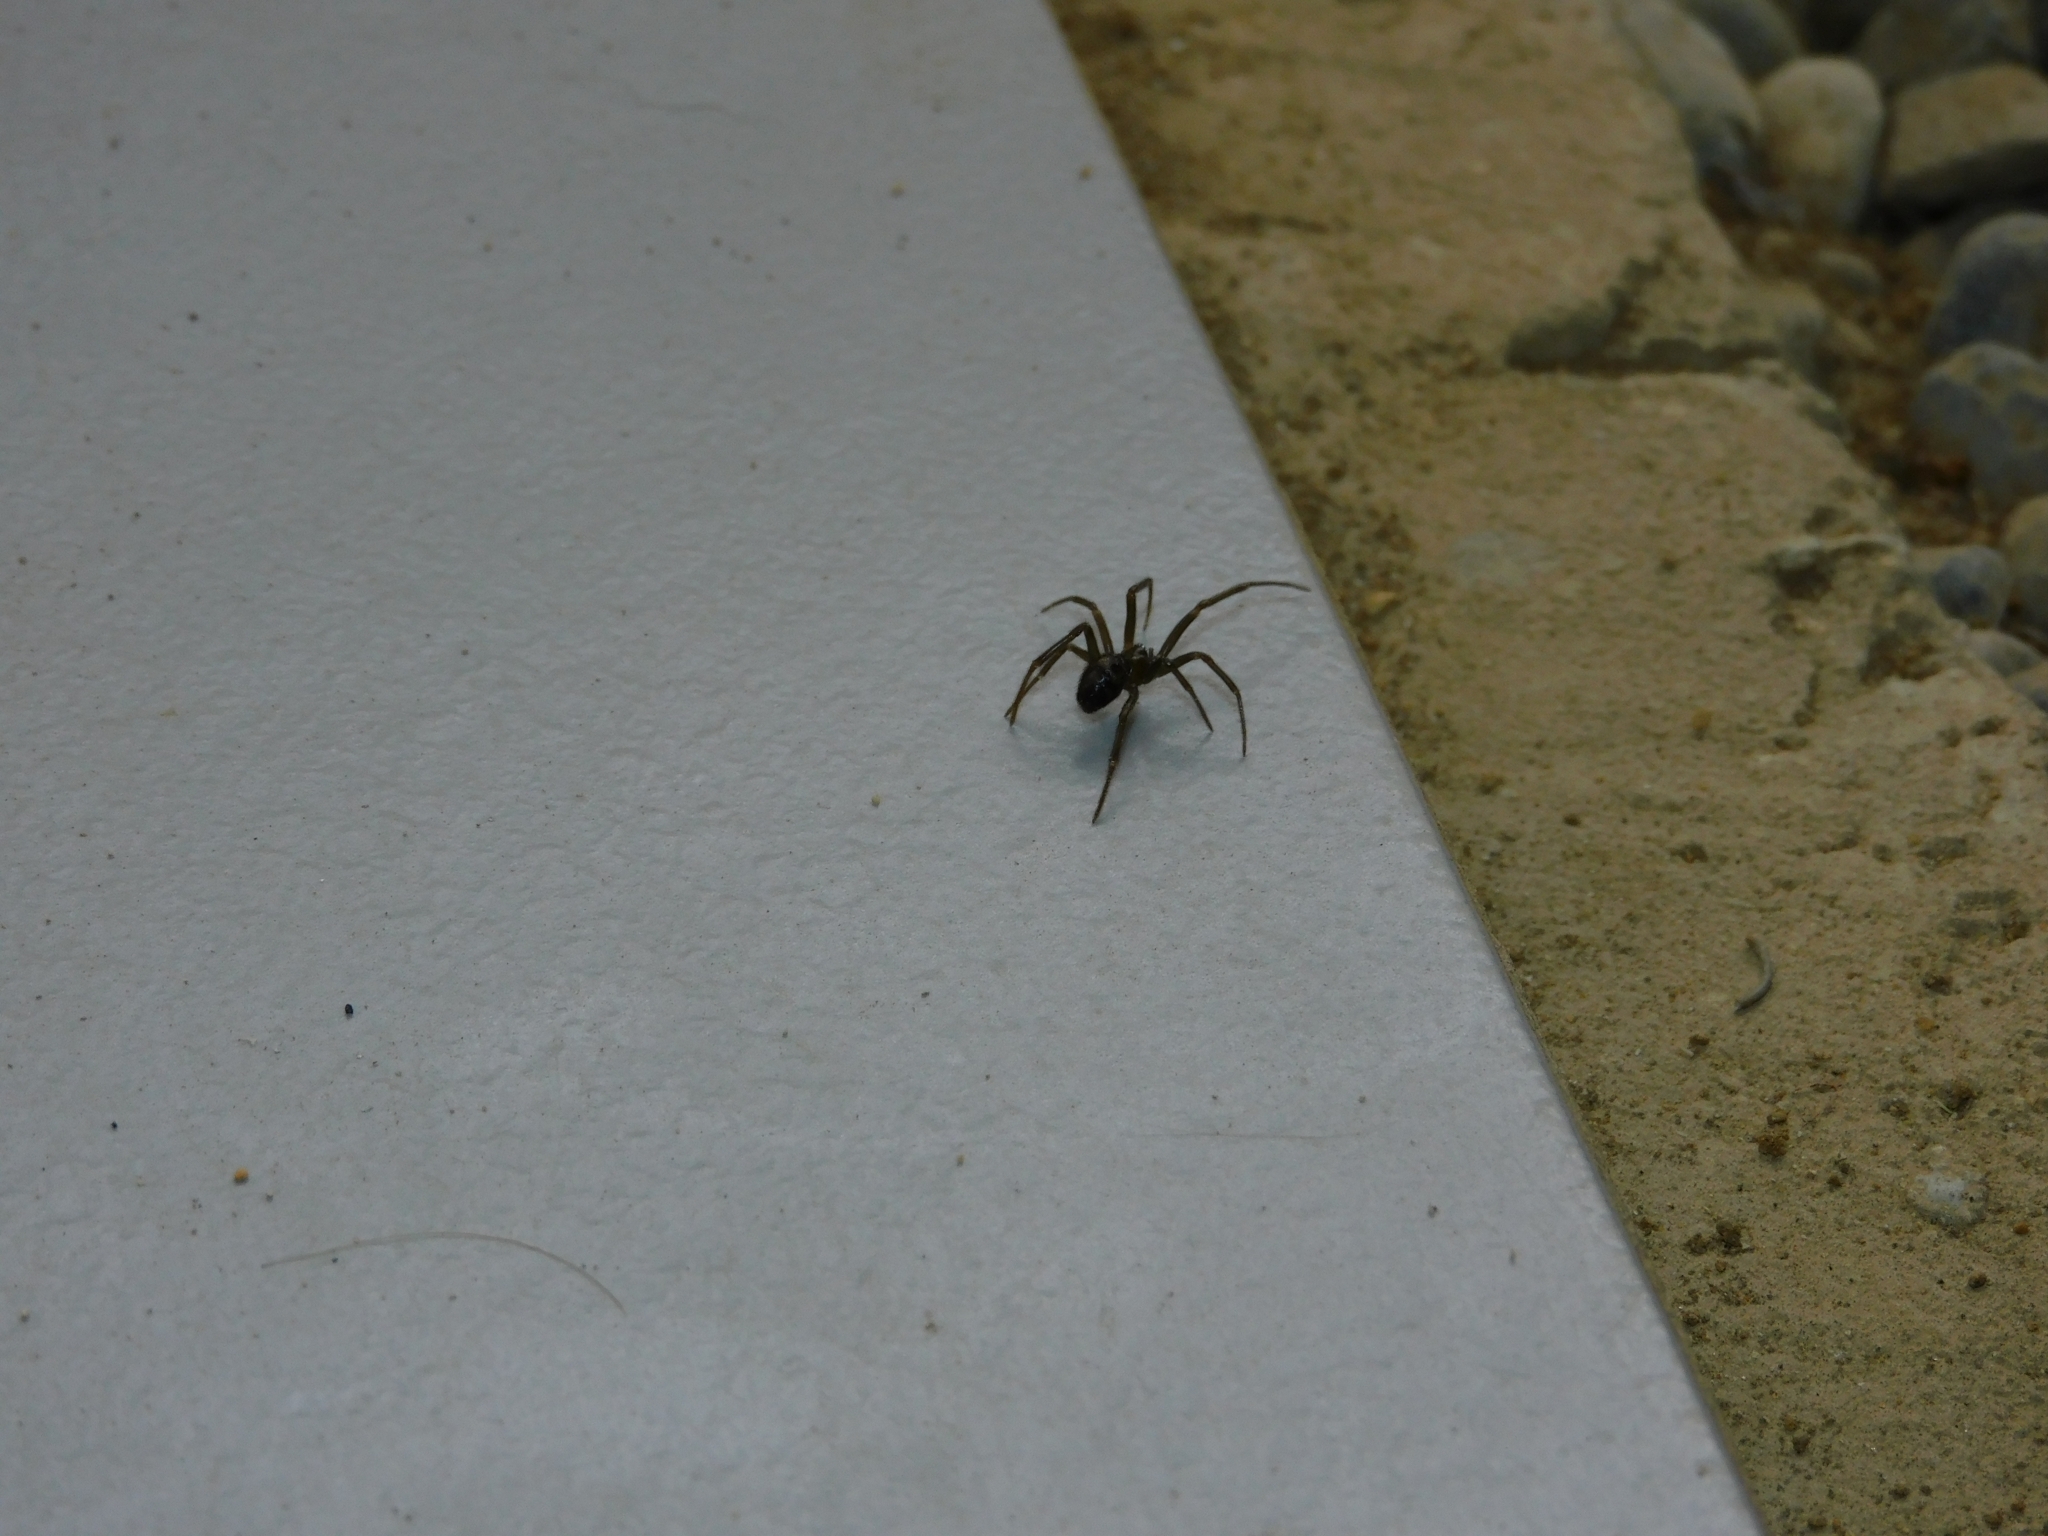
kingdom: Animalia
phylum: Arthropoda
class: Arachnida
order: Araneae
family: Theridiidae
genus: Steatoda
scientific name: Steatoda grossa
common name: False black widow
